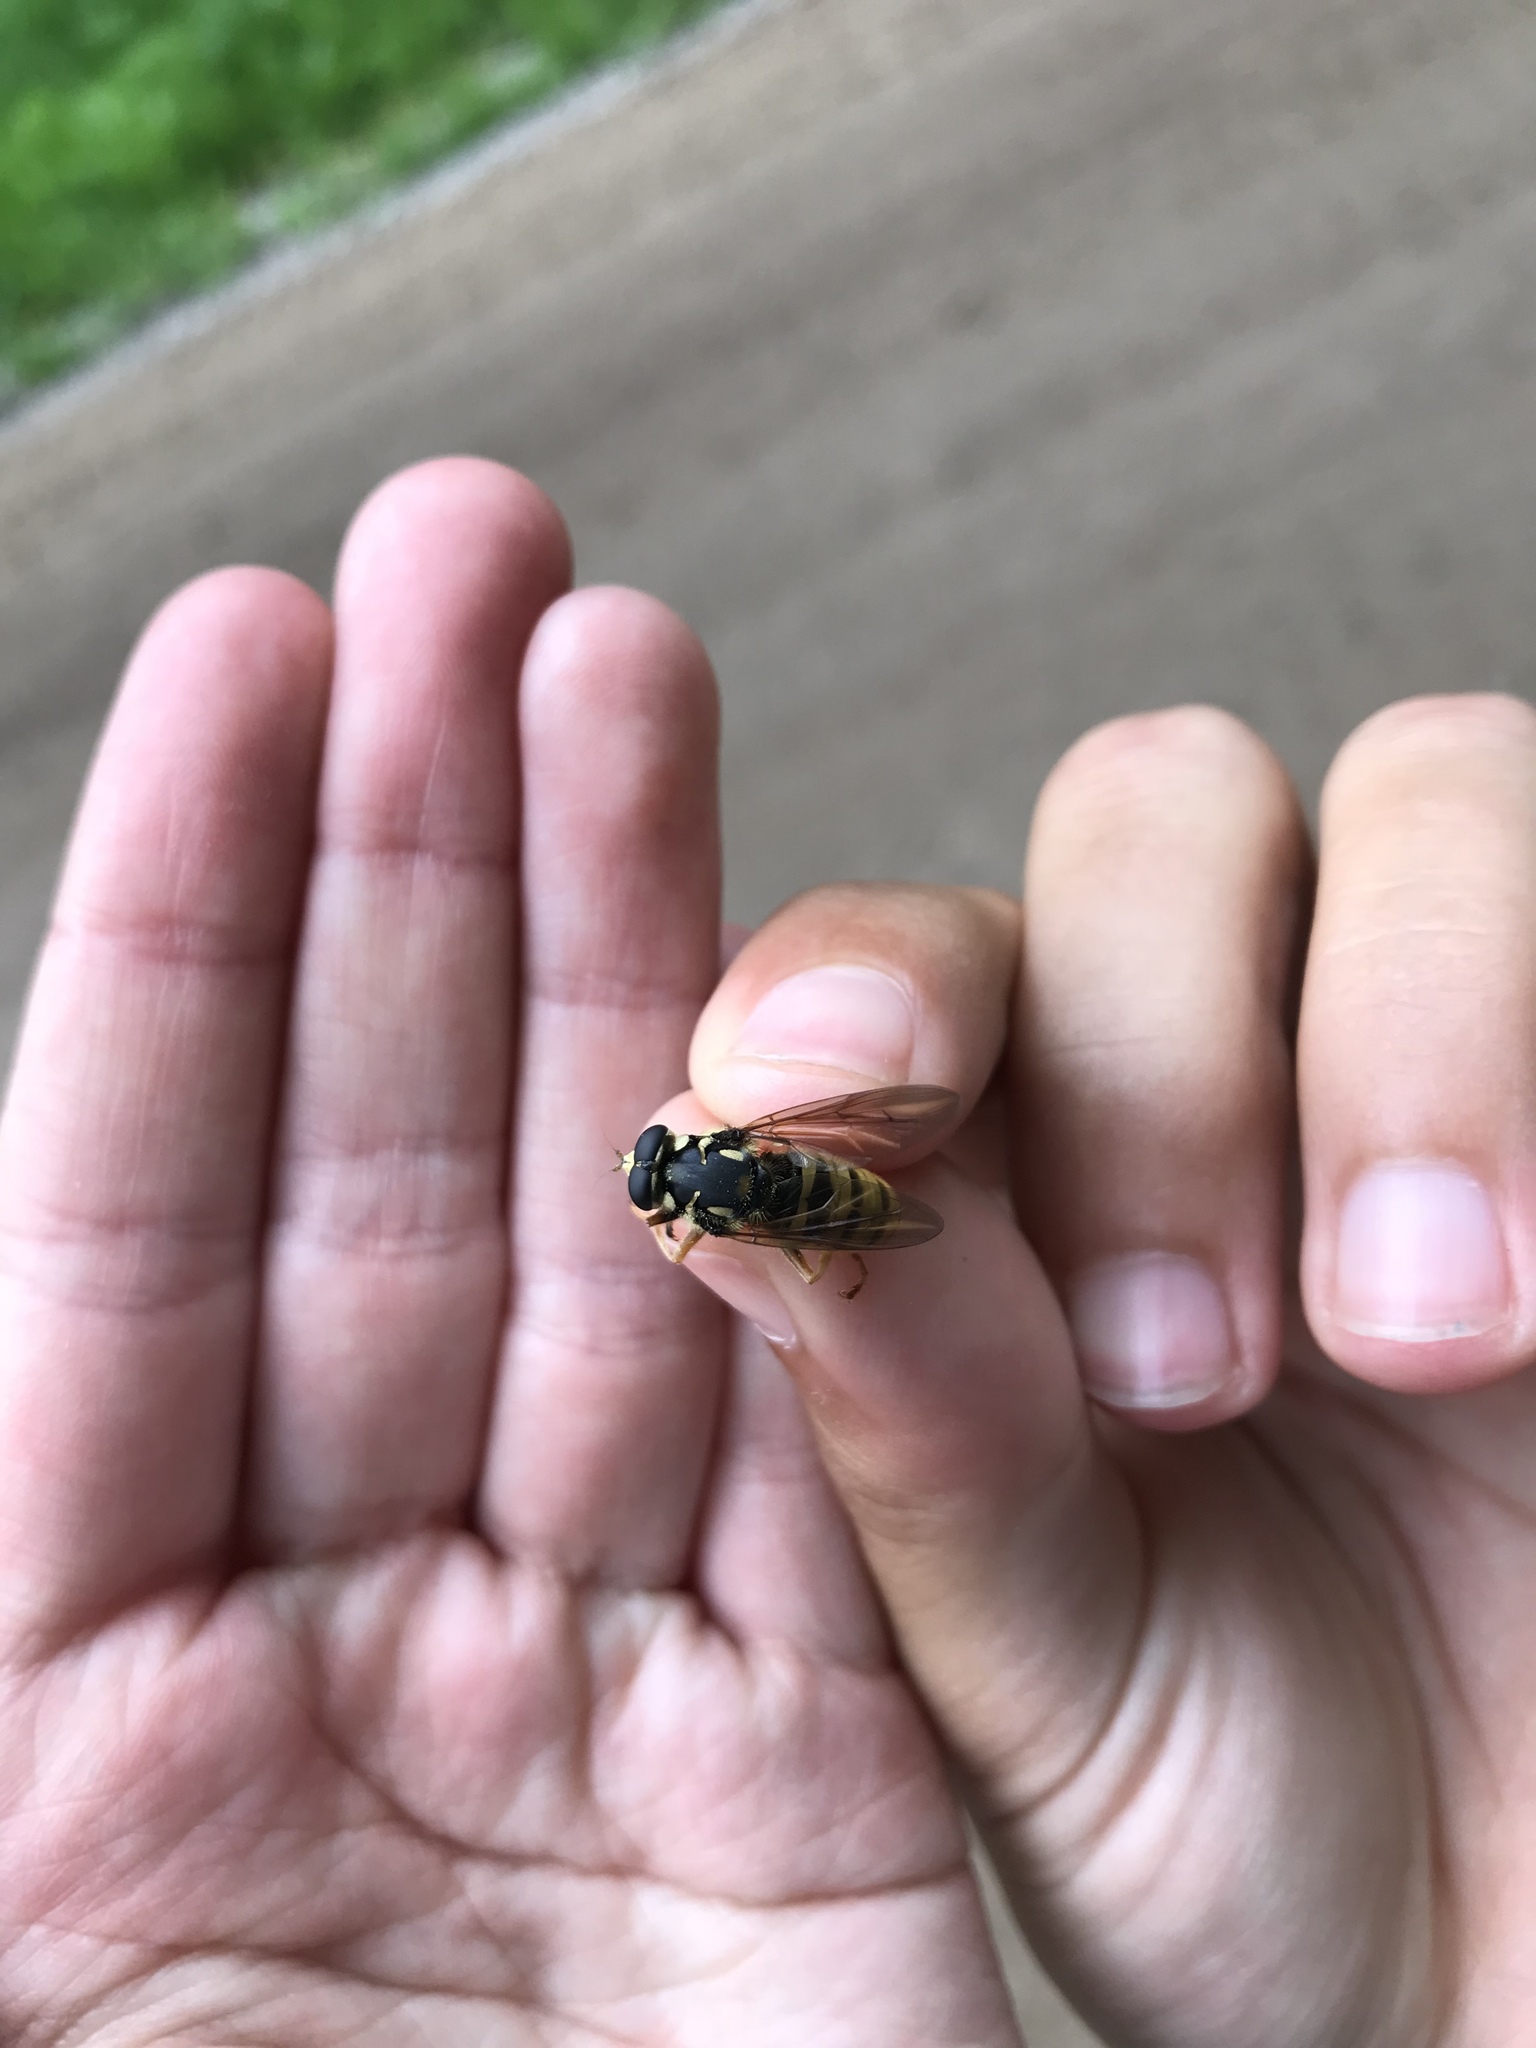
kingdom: Animalia
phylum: Arthropoda
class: Insecta
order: Diptera
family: Syrphidae
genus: Temnostoma
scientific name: Temnostoma excentricum
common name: Black-spotted falsehorn
